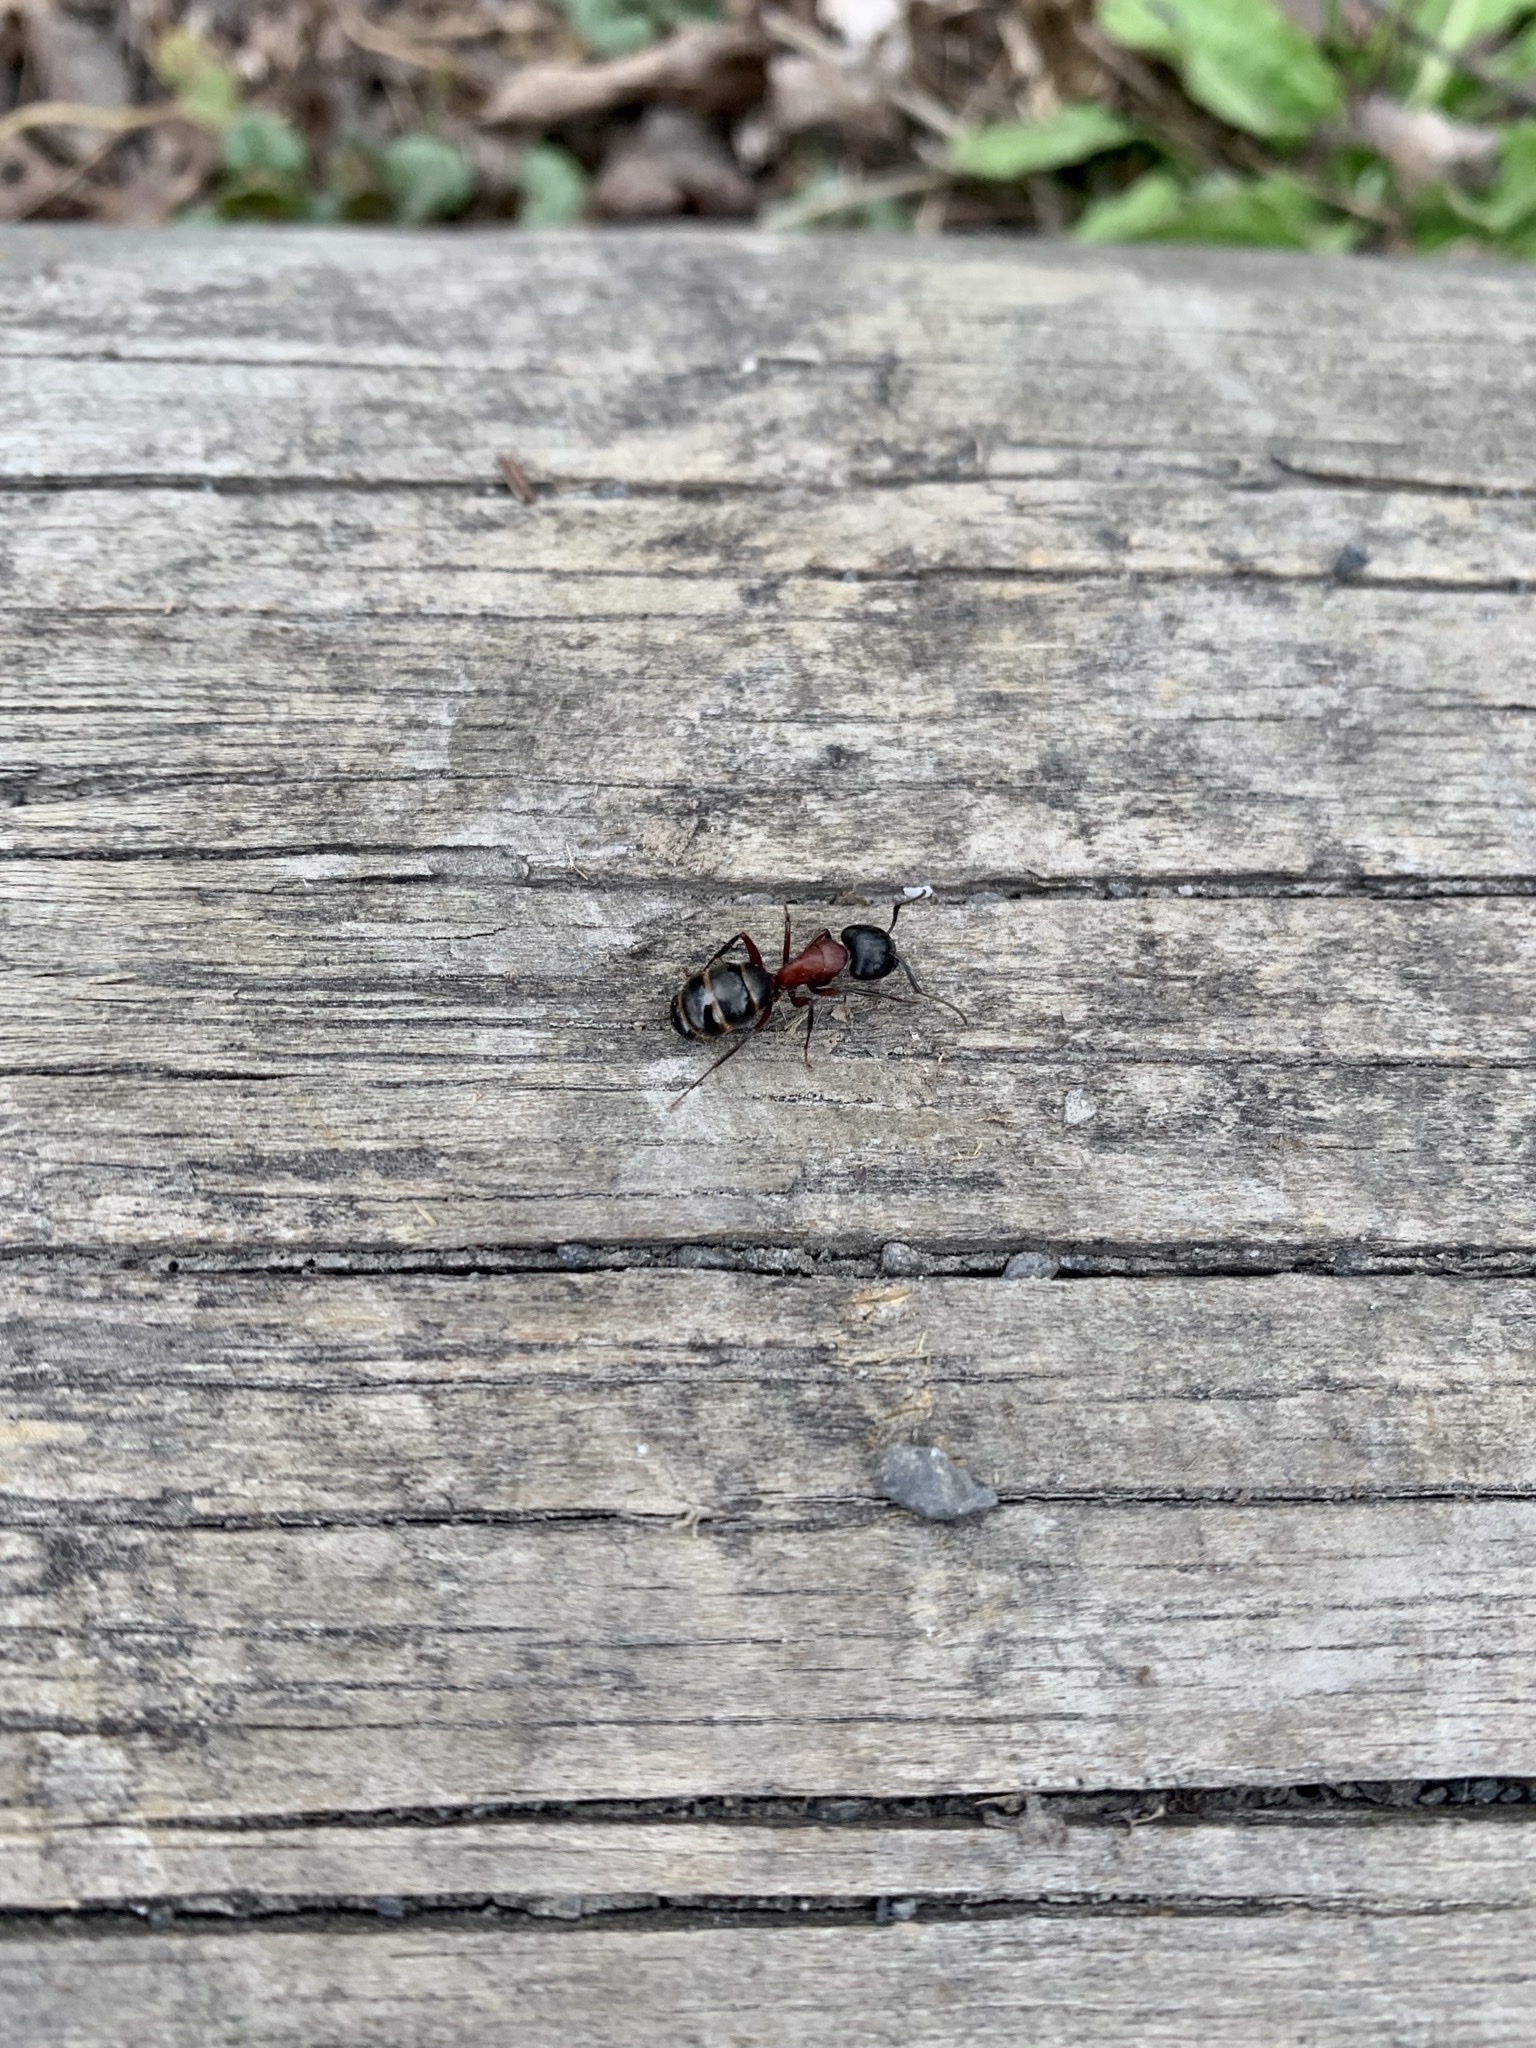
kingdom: Animalia
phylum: Arthropoda
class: Insecta
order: Hymenoptera
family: Formicidae
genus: Camponotus
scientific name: Camponotus novaeboracensis
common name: New york carpenter ant
